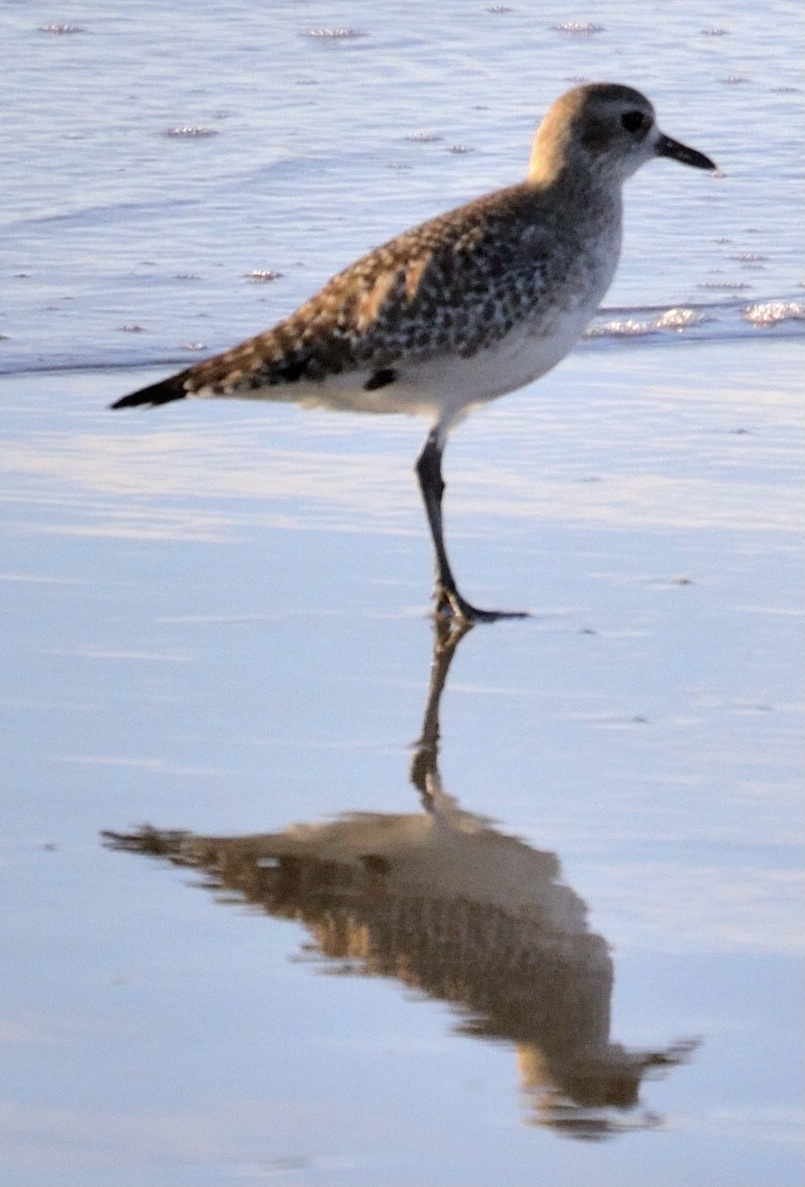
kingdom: Animalia
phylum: Chordata
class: Aves
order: Charadriiformes
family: Charadriidae
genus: Pluvialis
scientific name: Pluvialis squatarola
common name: Grey plover
